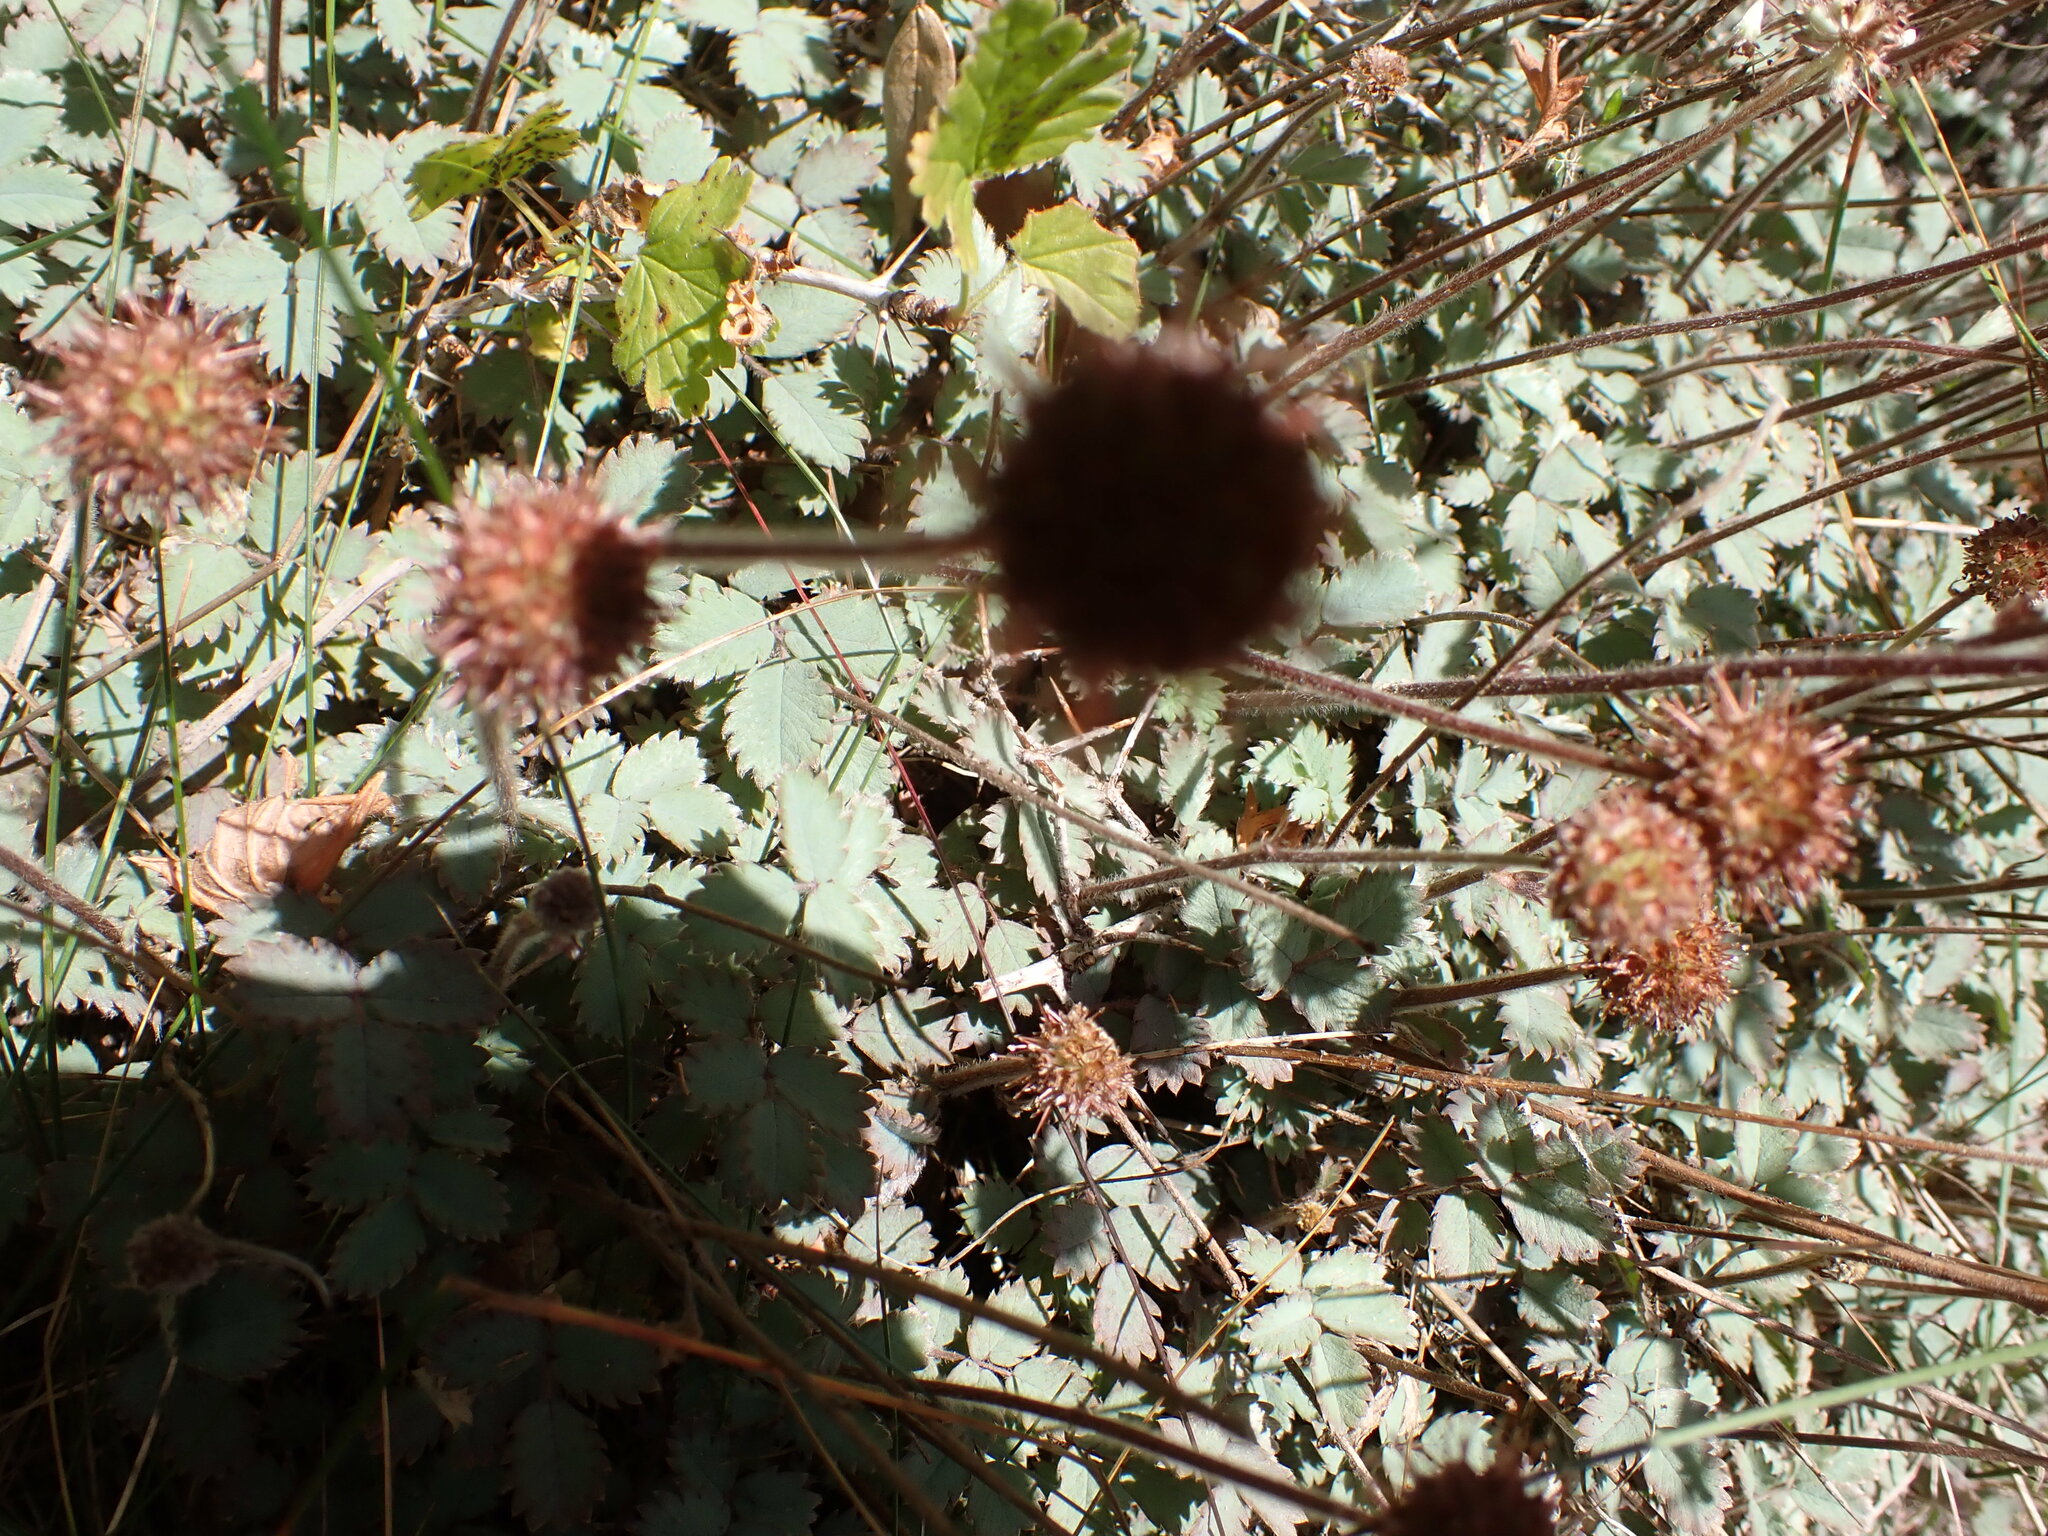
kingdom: Plantae
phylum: Tracheophyta
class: Magnoliopsida
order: Rosales
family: Rosaceae
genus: Acaena
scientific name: Acaena caesiiglauca
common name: Glaucous pirri-pirri-bur
